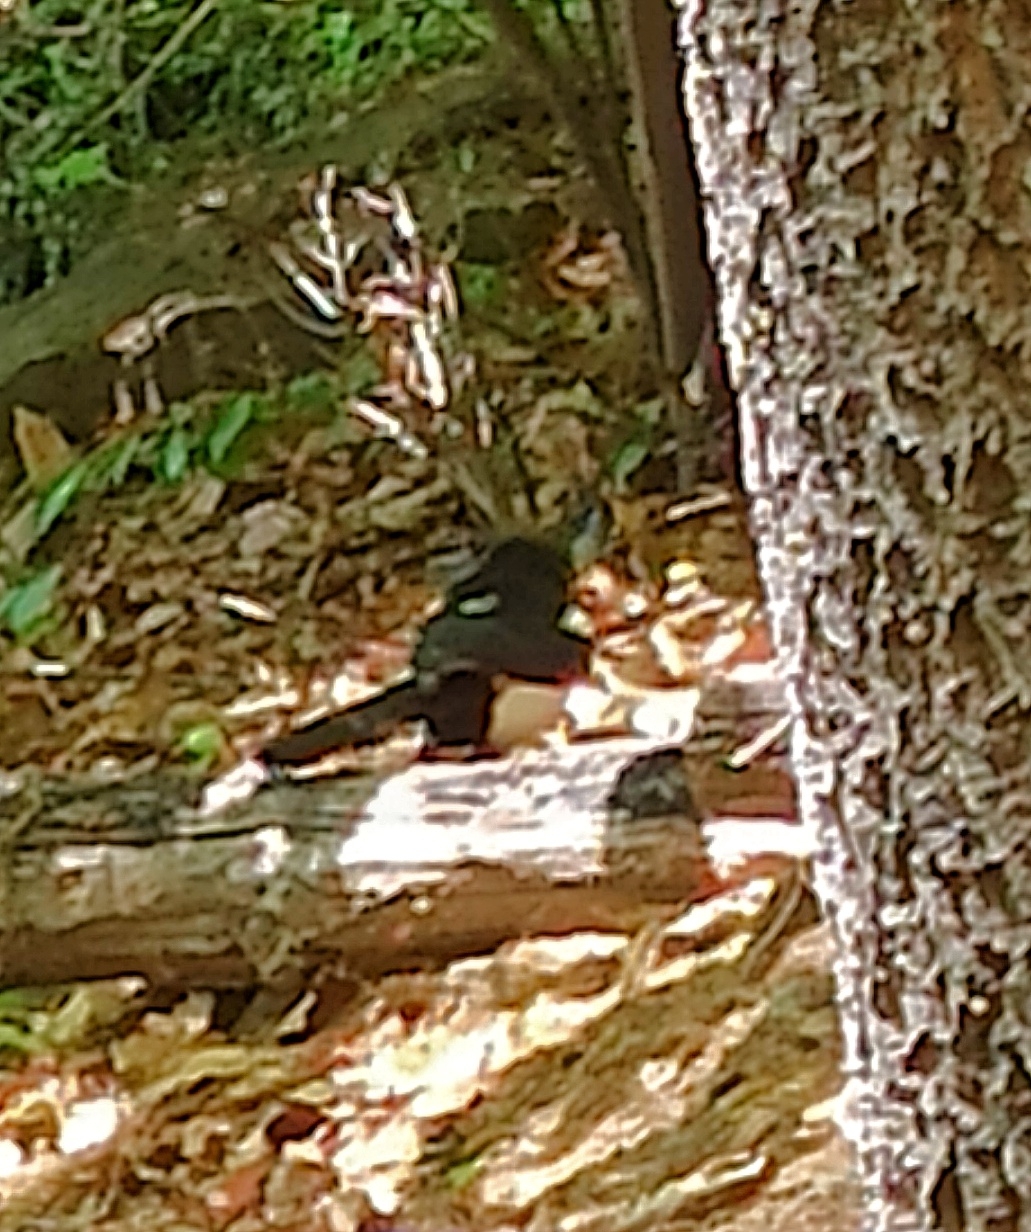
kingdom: Animalia
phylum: Chordata
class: Aves
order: Passeriformes
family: Corvidae
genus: Pica
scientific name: Pica serica
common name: Oriental magpie
